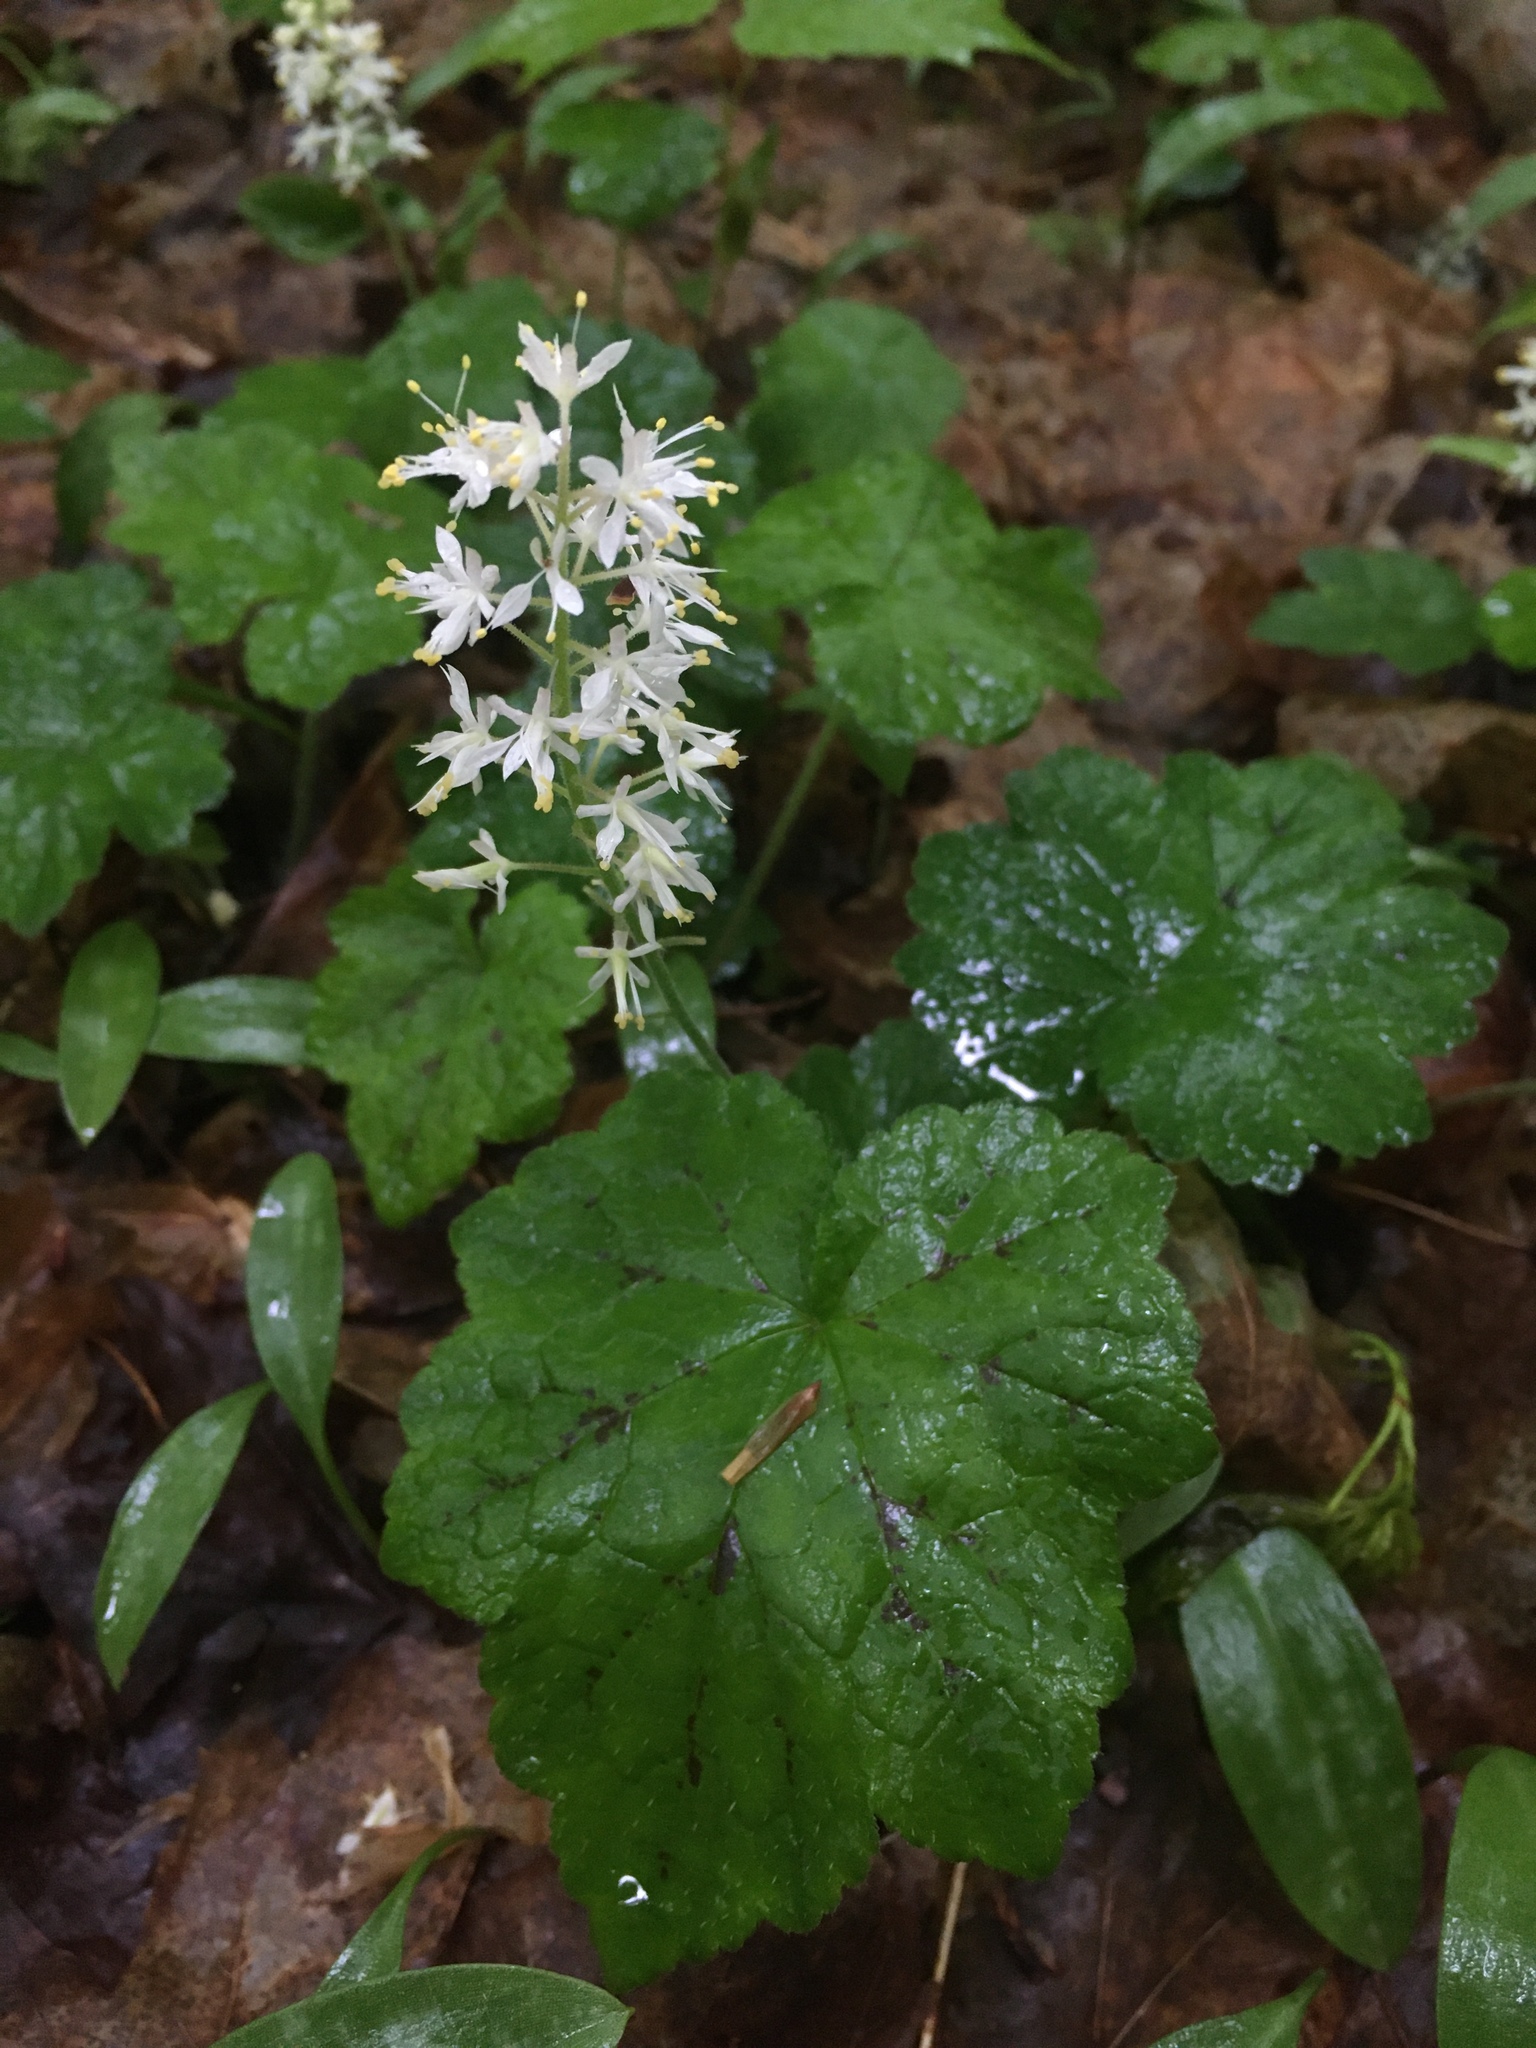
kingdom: Plantae
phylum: Tracheophyta
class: Magnoliopsida
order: Saxifragales
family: Saxifragaceae
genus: Tiarella
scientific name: Tiarella stolonifera
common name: Stoloniferous foamflower
